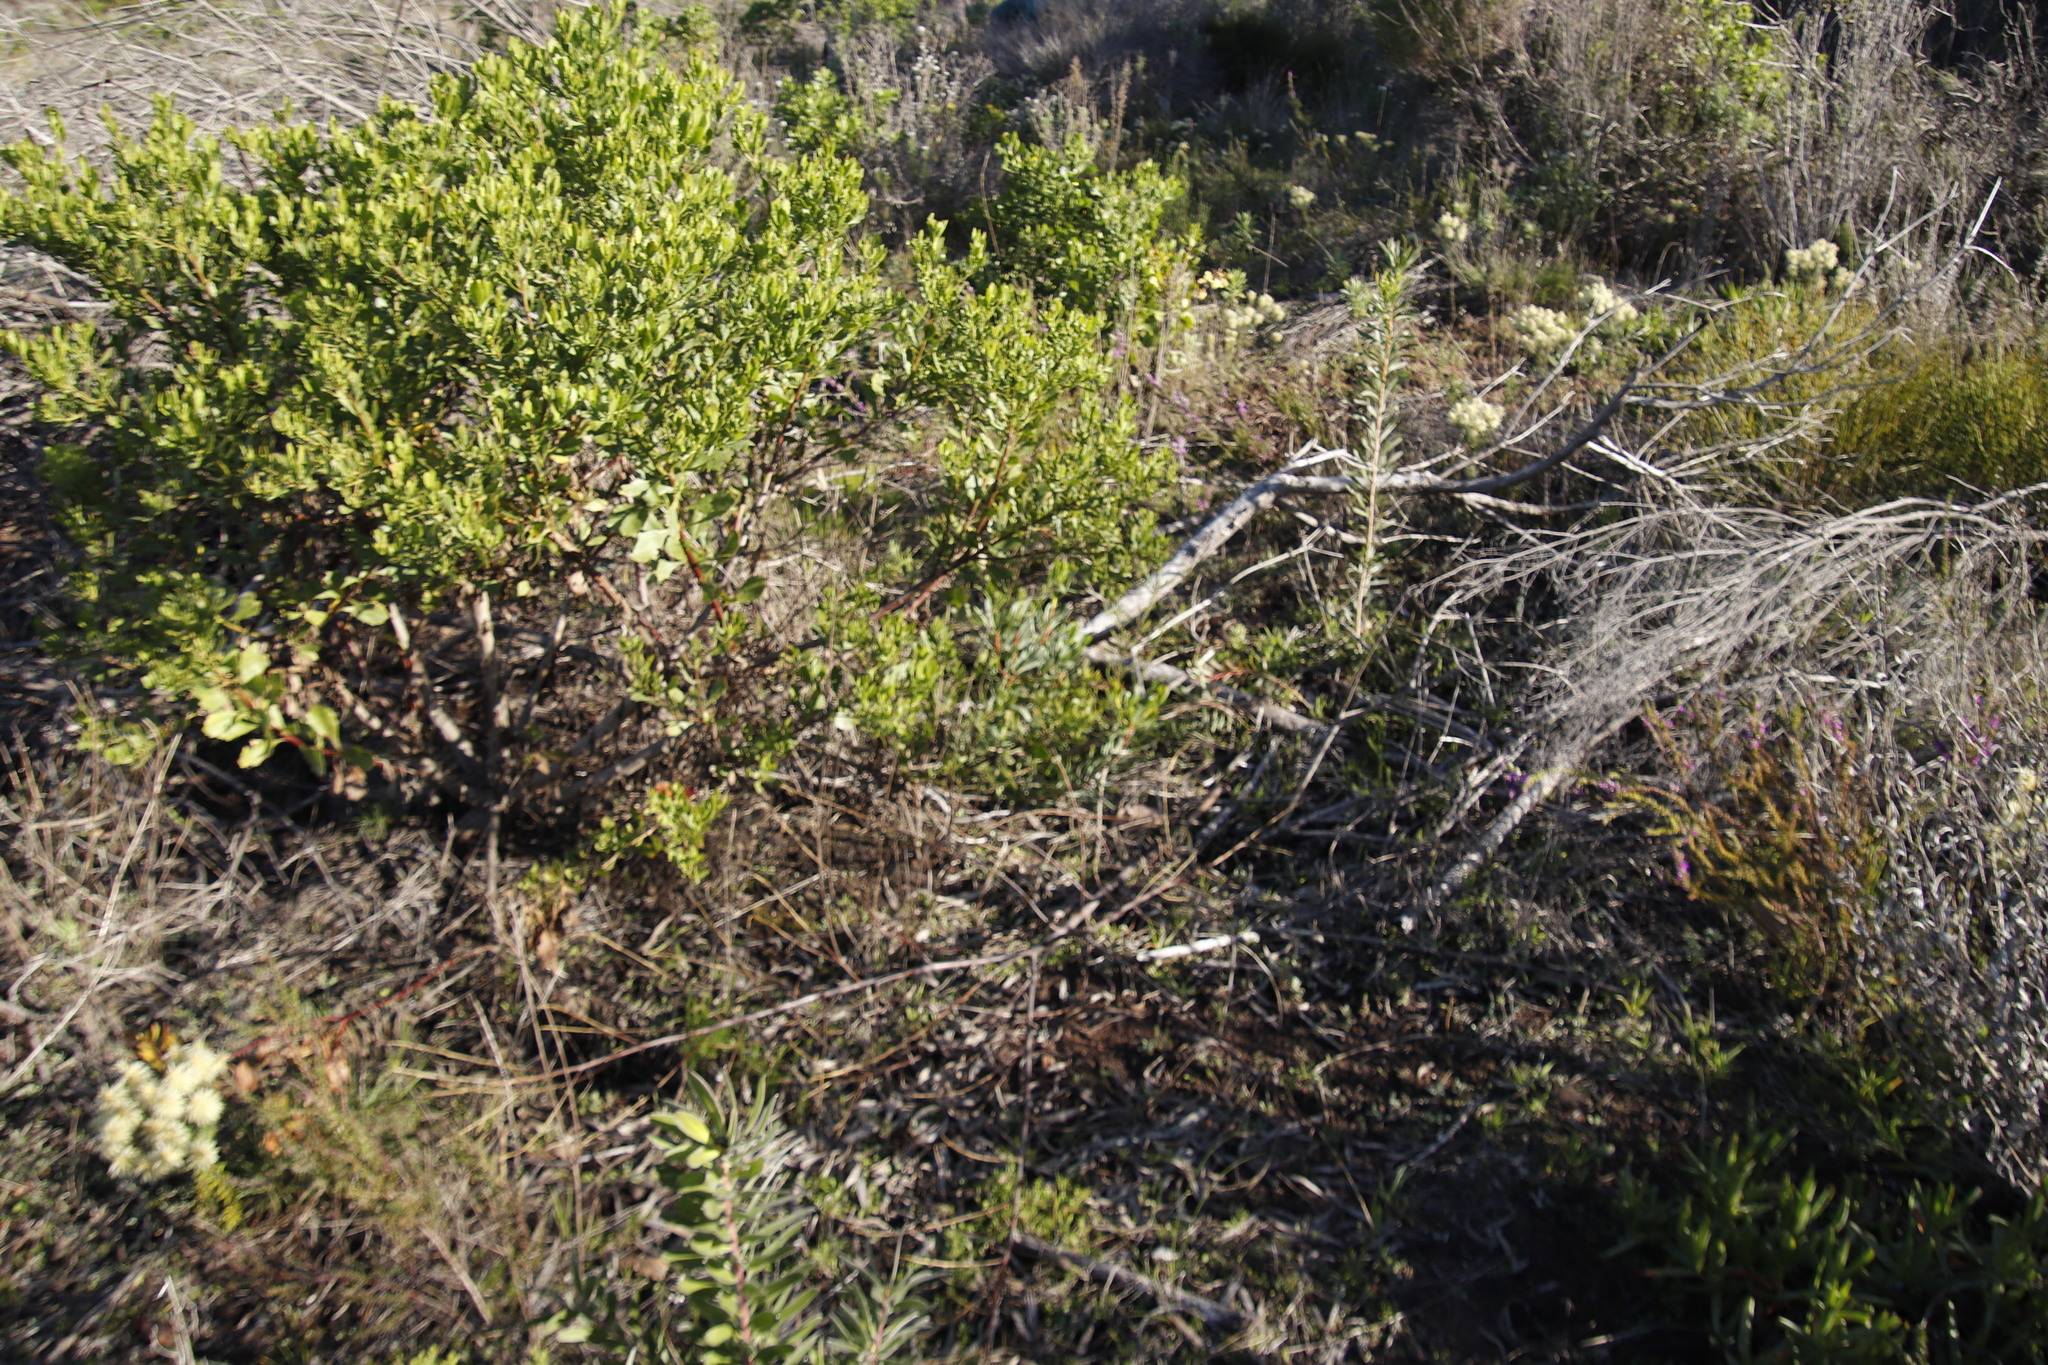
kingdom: Plantae
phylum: Tracheophyta
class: Magnoliopsida
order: Proteales
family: Proteaceae
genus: Protea
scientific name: Protea repens
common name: Sugarbush
